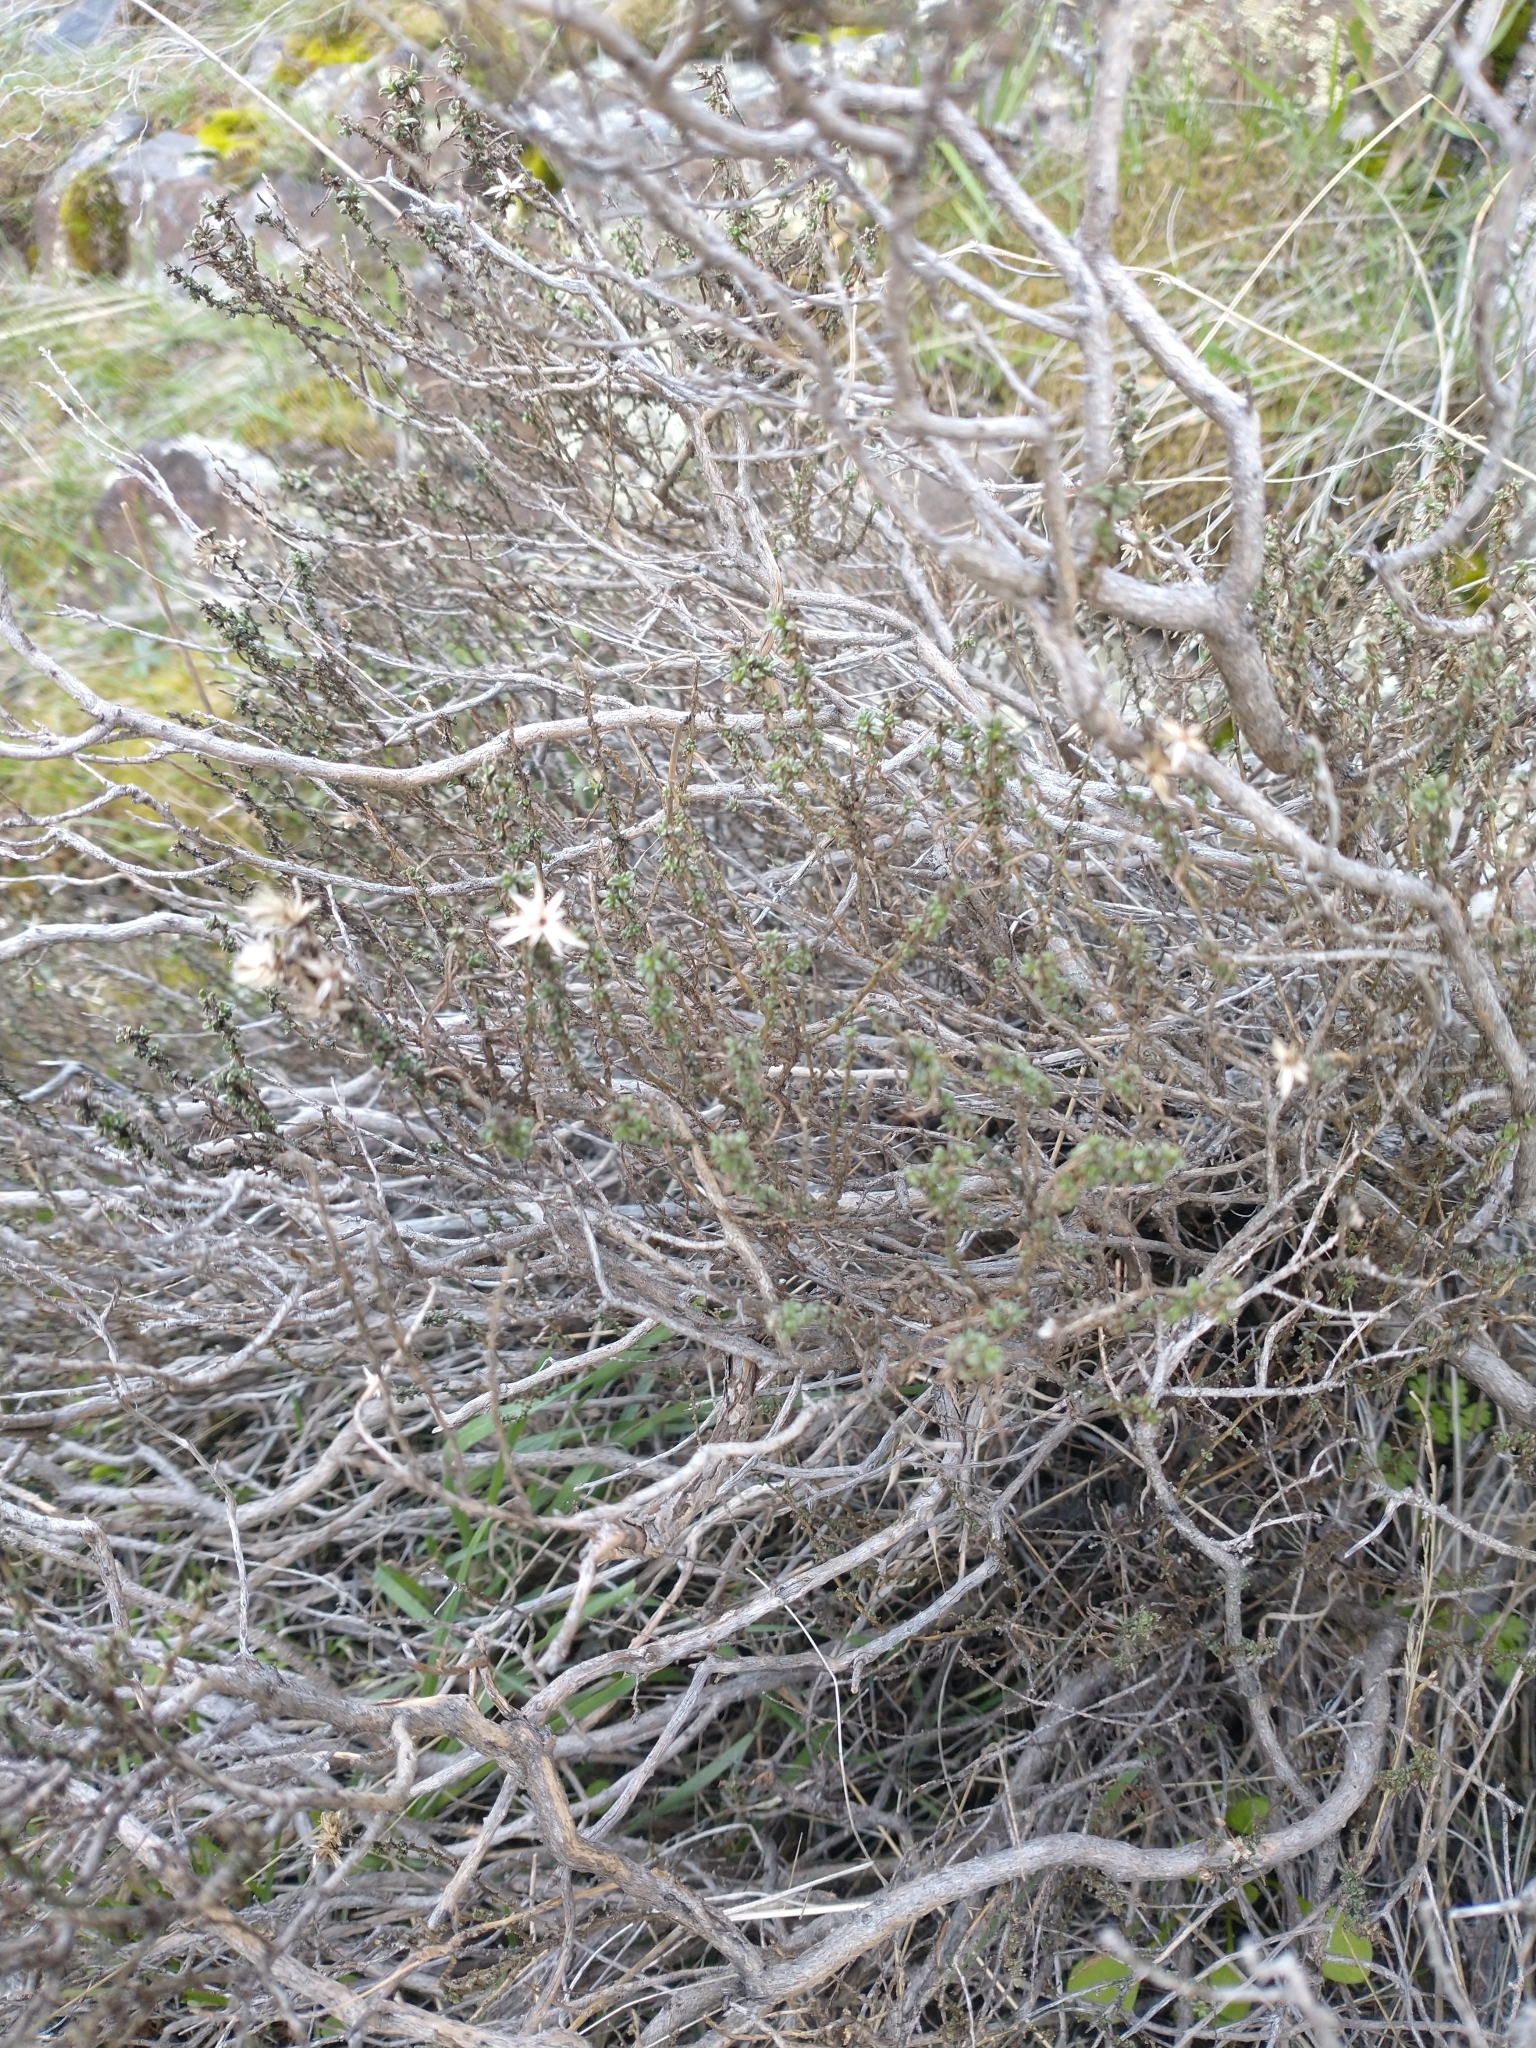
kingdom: Plantae
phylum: Tracheophyta
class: Magnoliopsida
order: Asterales
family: Asteraceae
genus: Ericameria
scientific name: Ericameria resinosa
